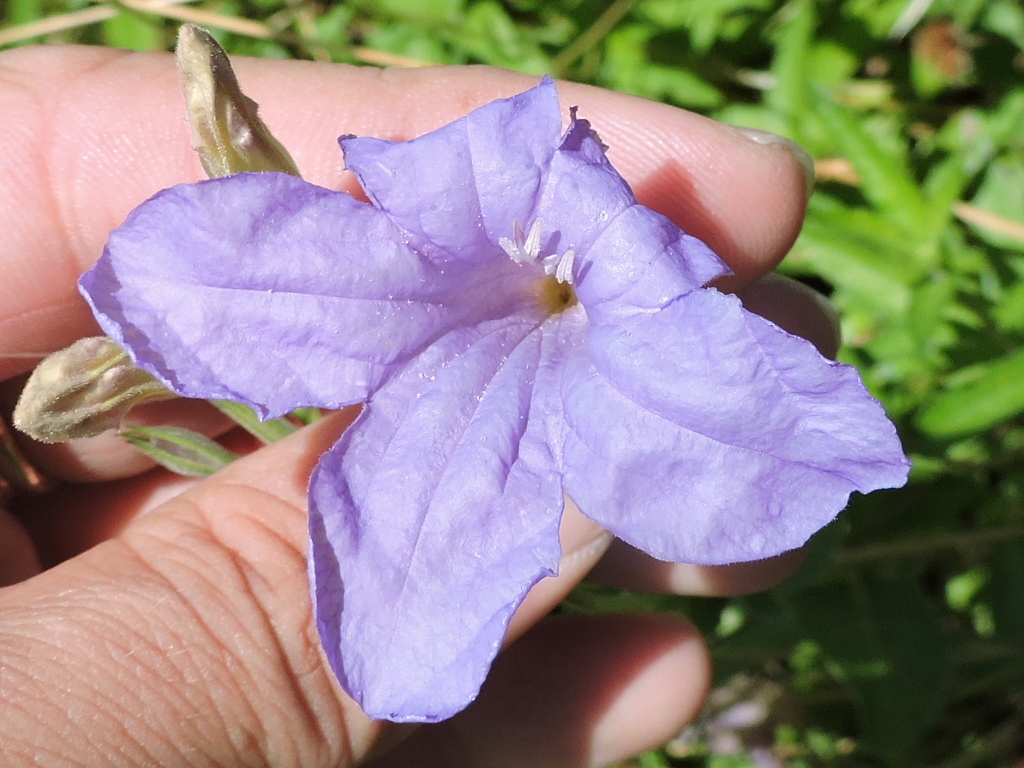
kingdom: Plantae
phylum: Tracheophyta
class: Magnoliopsida
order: Lamiales
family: Acanthaceae
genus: Ruellia
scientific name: Ruellia ciliatiflora
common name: Hairyflower wild petunia
